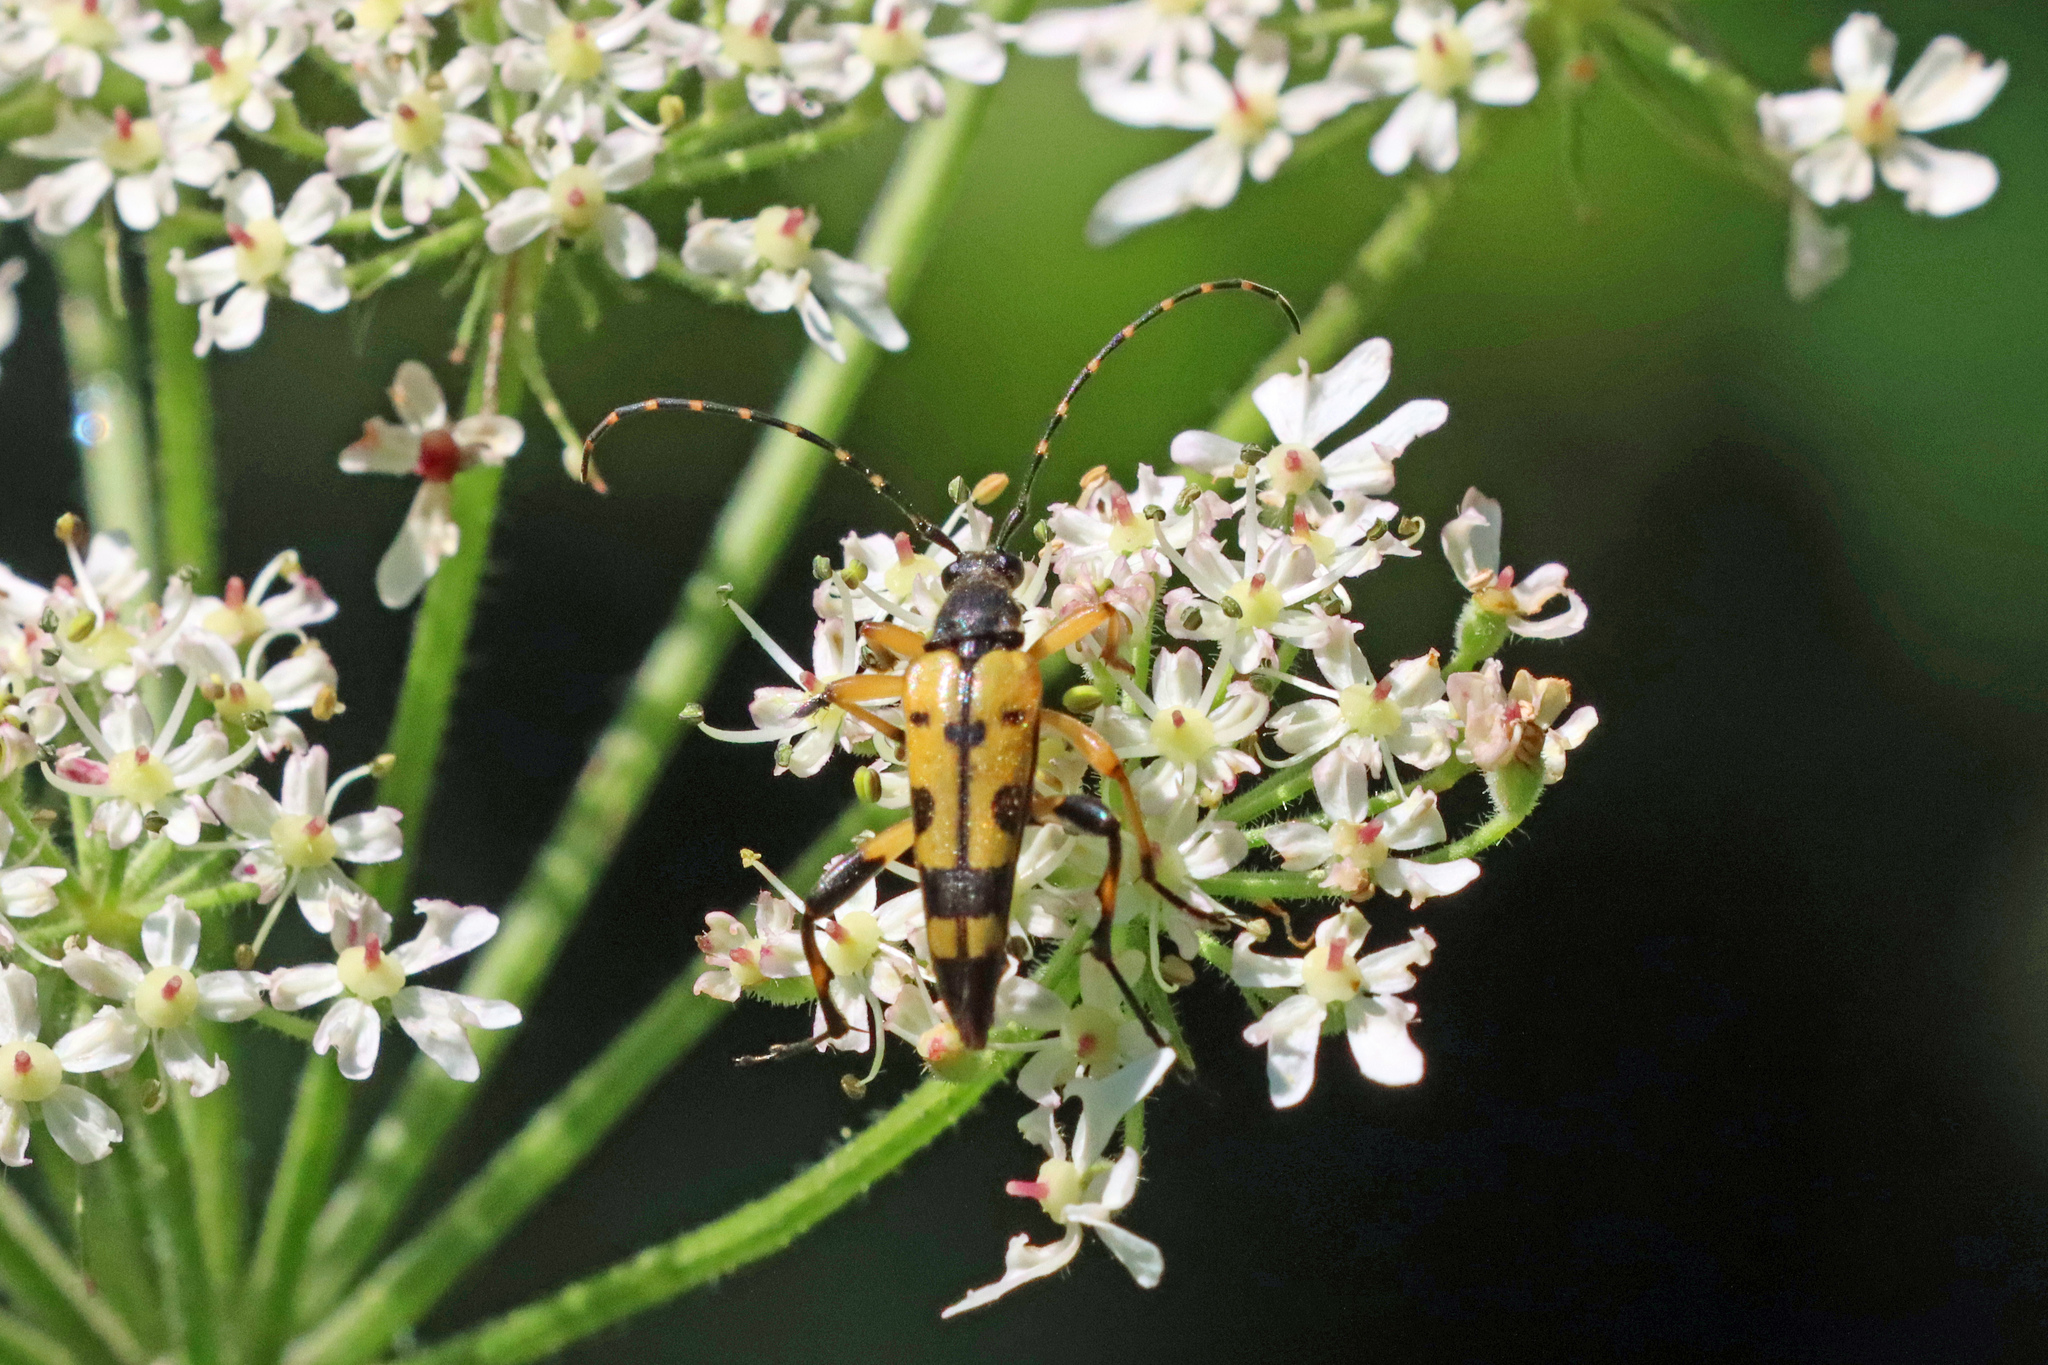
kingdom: Animalia
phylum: Arthropoda
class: Insecta
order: Coleoptera
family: Cerambycidae
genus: Rutpela
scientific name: Rutpela maculata
